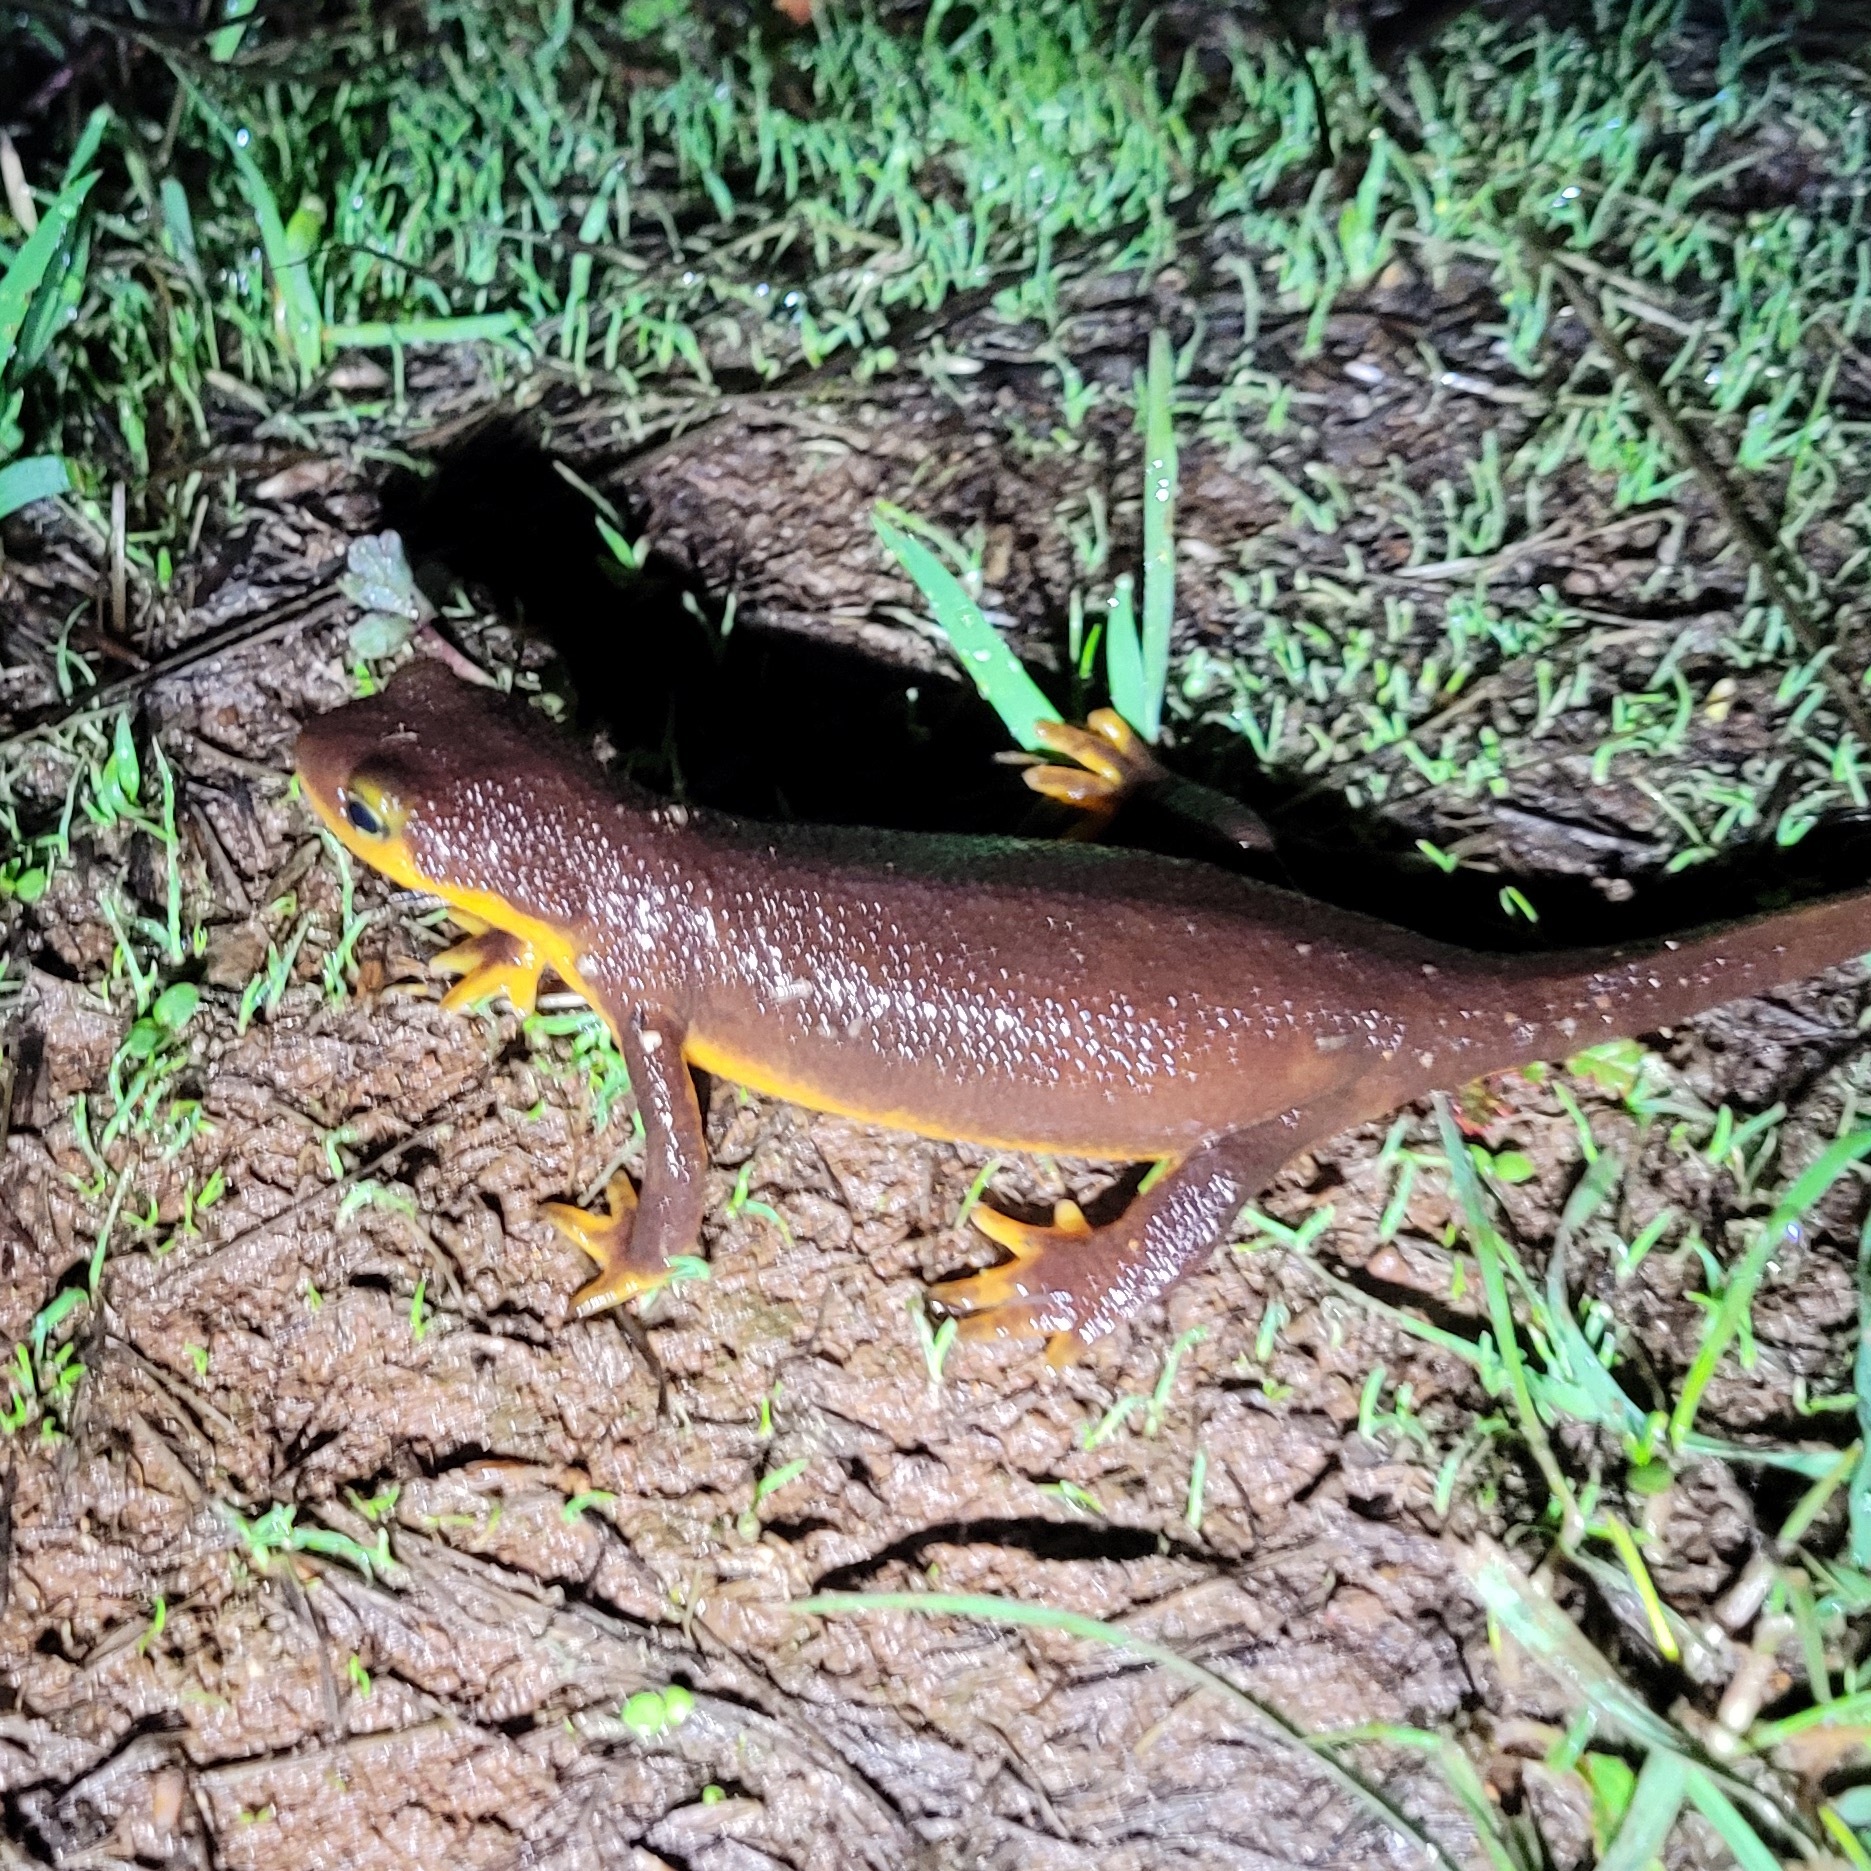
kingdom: Animalia
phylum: Chordata
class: Amphibia
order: Caudata
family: Salamandridae
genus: Taricha
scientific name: Taricha torosa
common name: California newt
